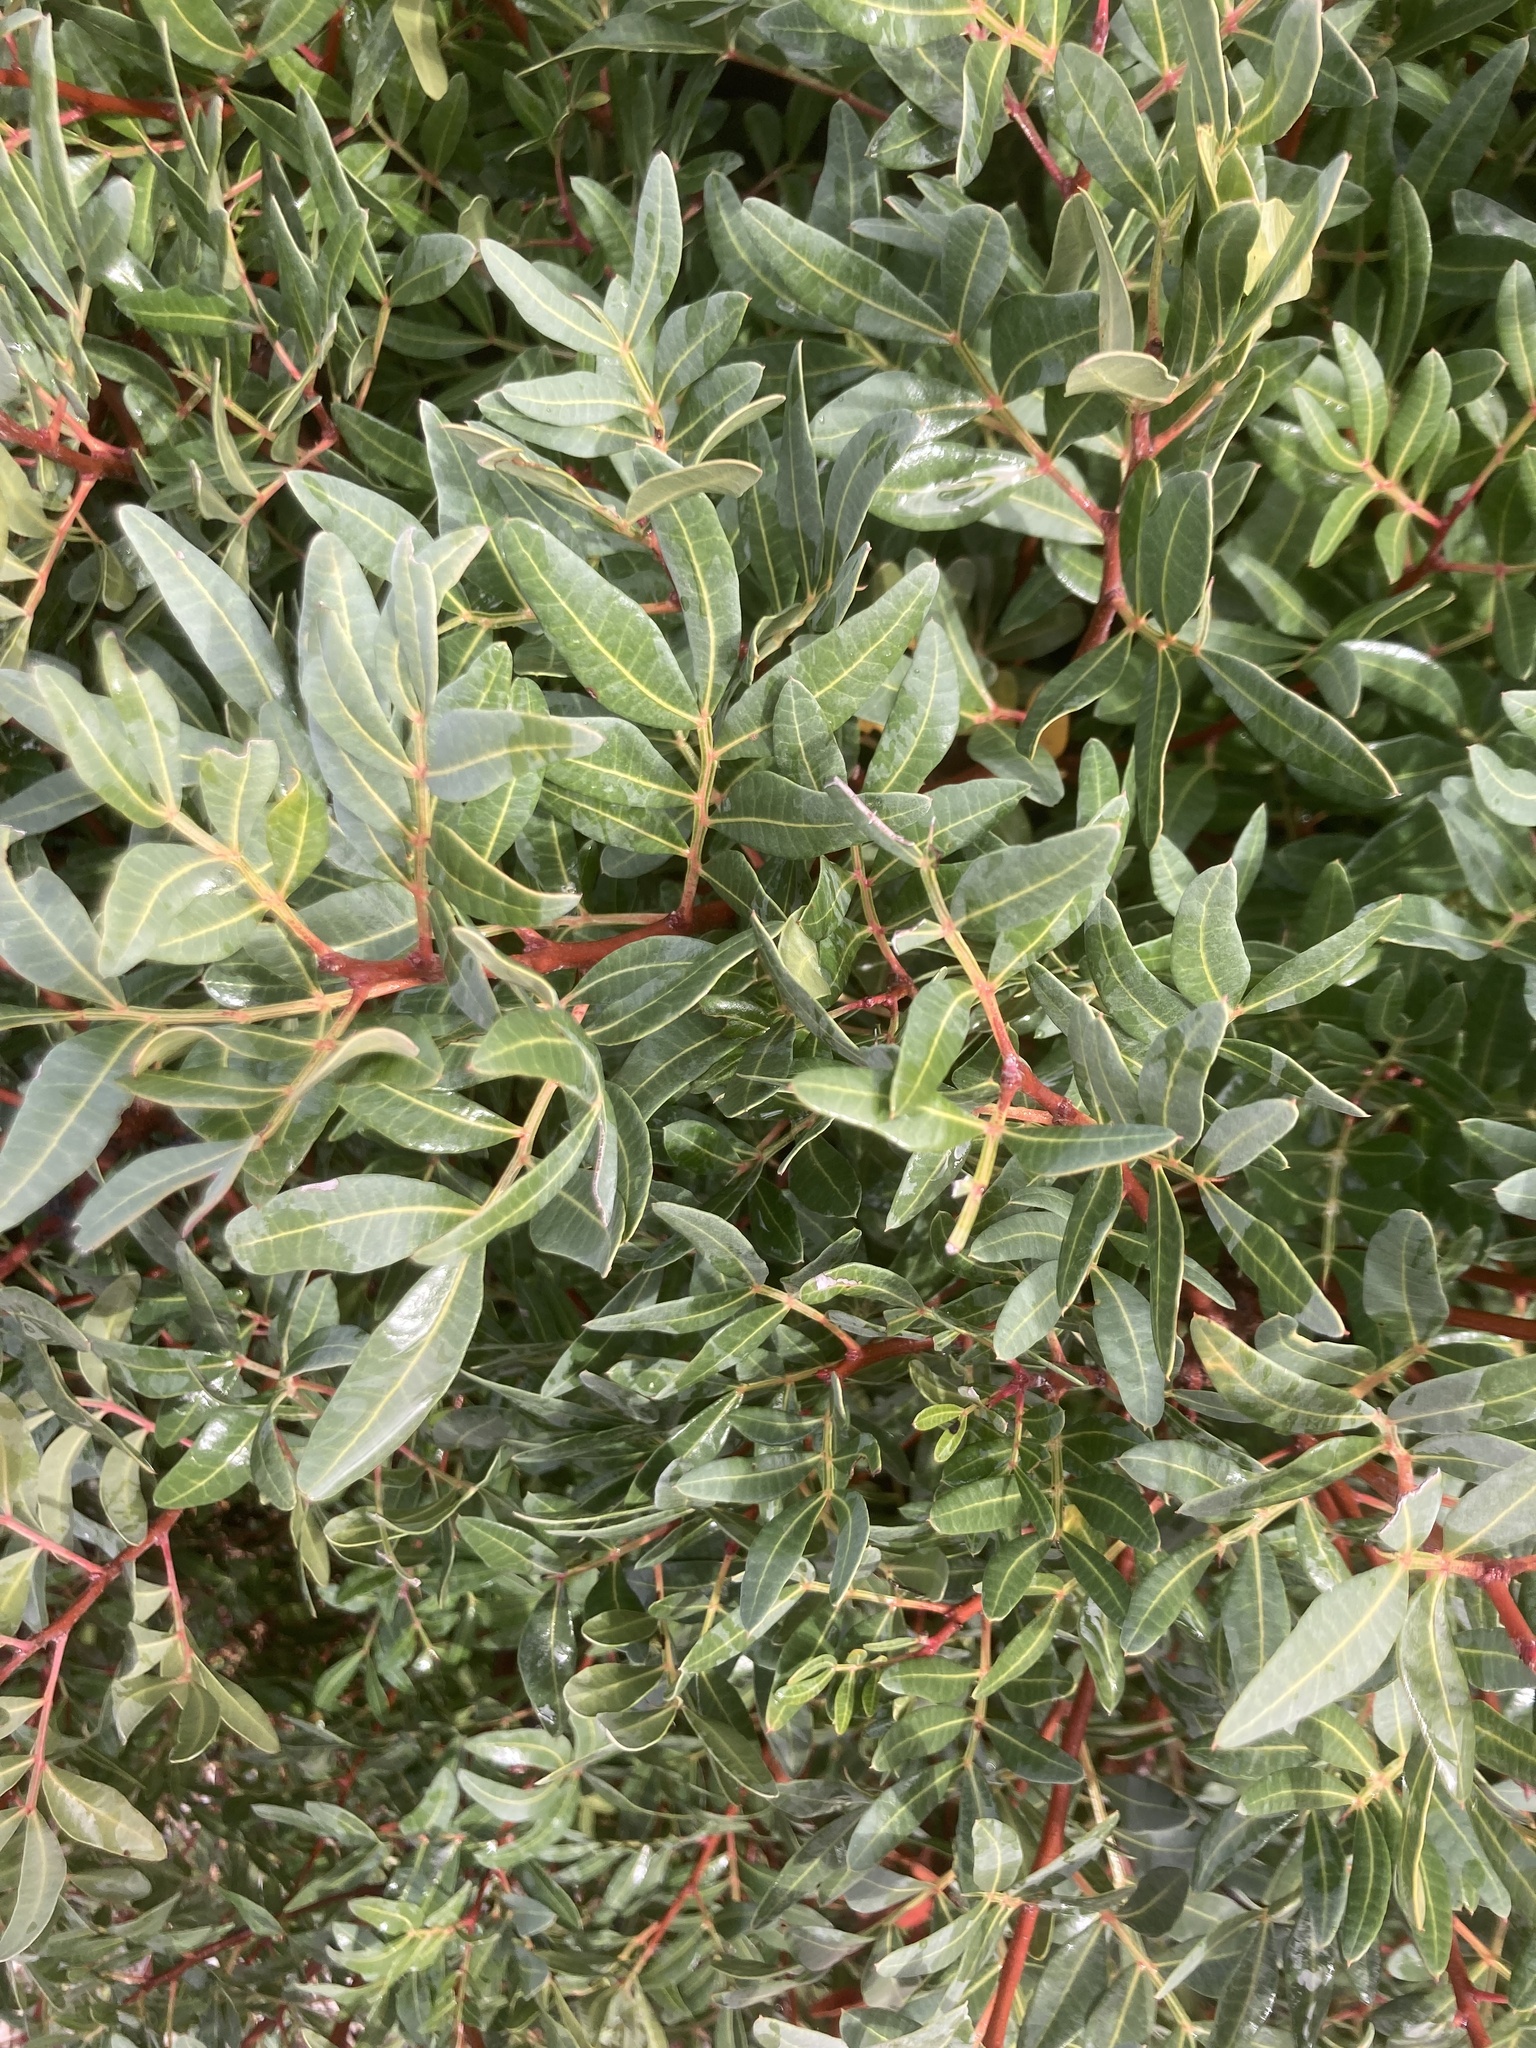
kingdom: Plantae
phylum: Tracheophyta
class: Magnoliopsida
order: Sapindales
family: Anacardiaceae
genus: Pistacia
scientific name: Pistacia lentiscus
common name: Lentisk
